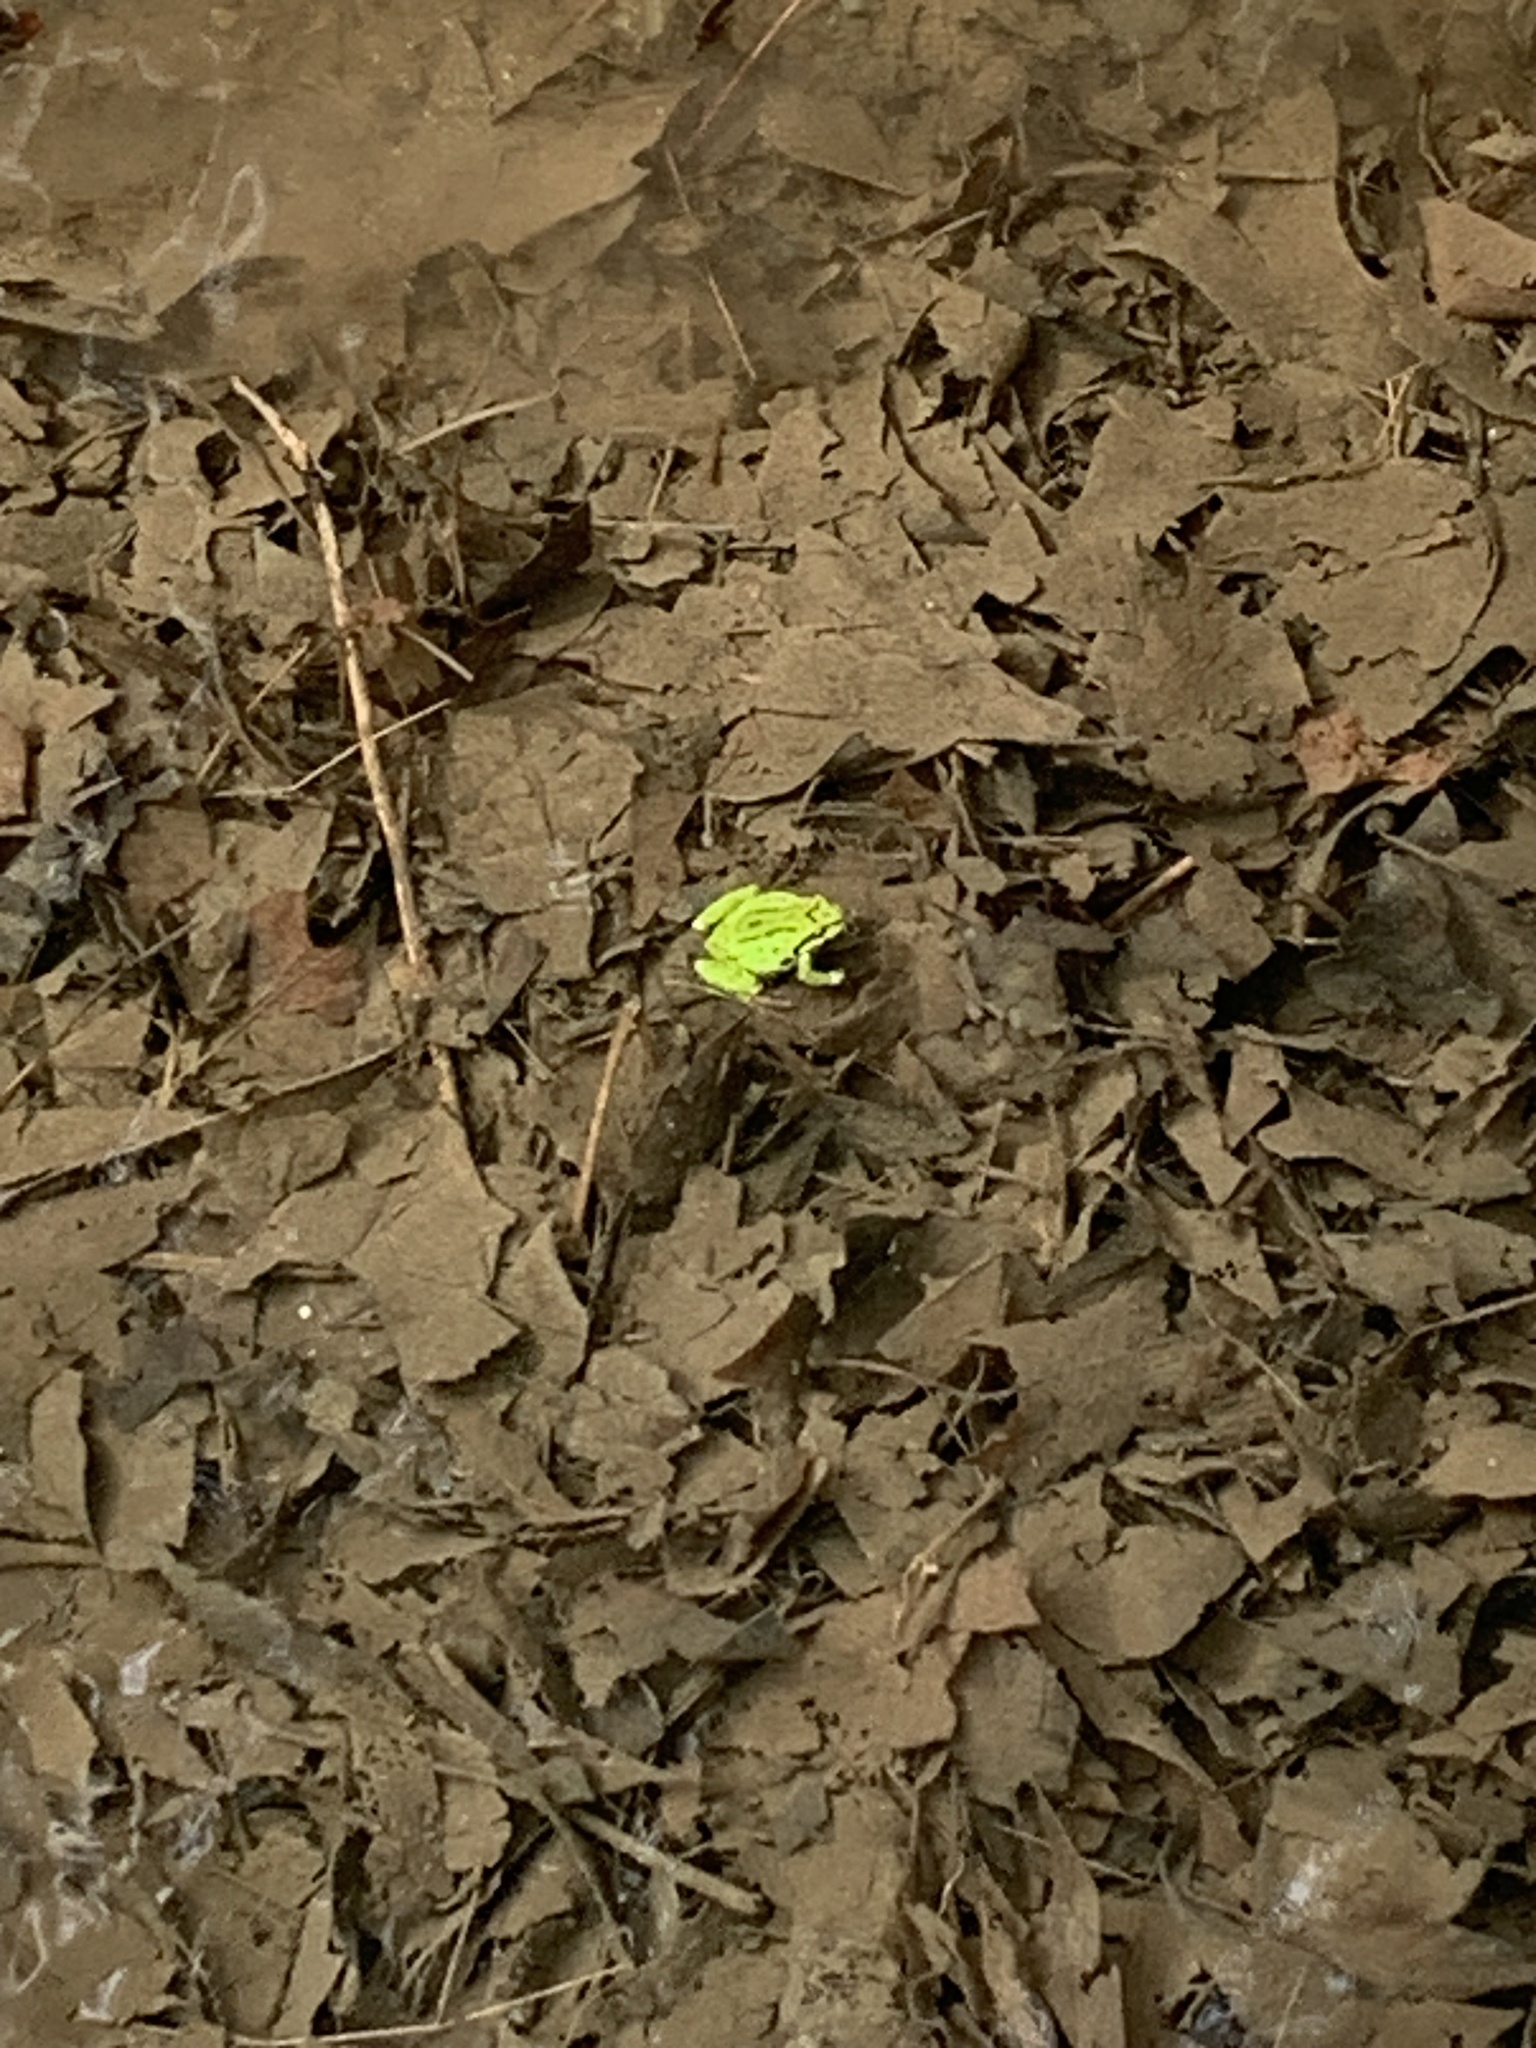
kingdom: Animalia
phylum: Chordata
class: Amphibia
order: Anura
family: Hylidae
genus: Pseudacris
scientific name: Pseudacris regilla
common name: Pacific chorus frog
